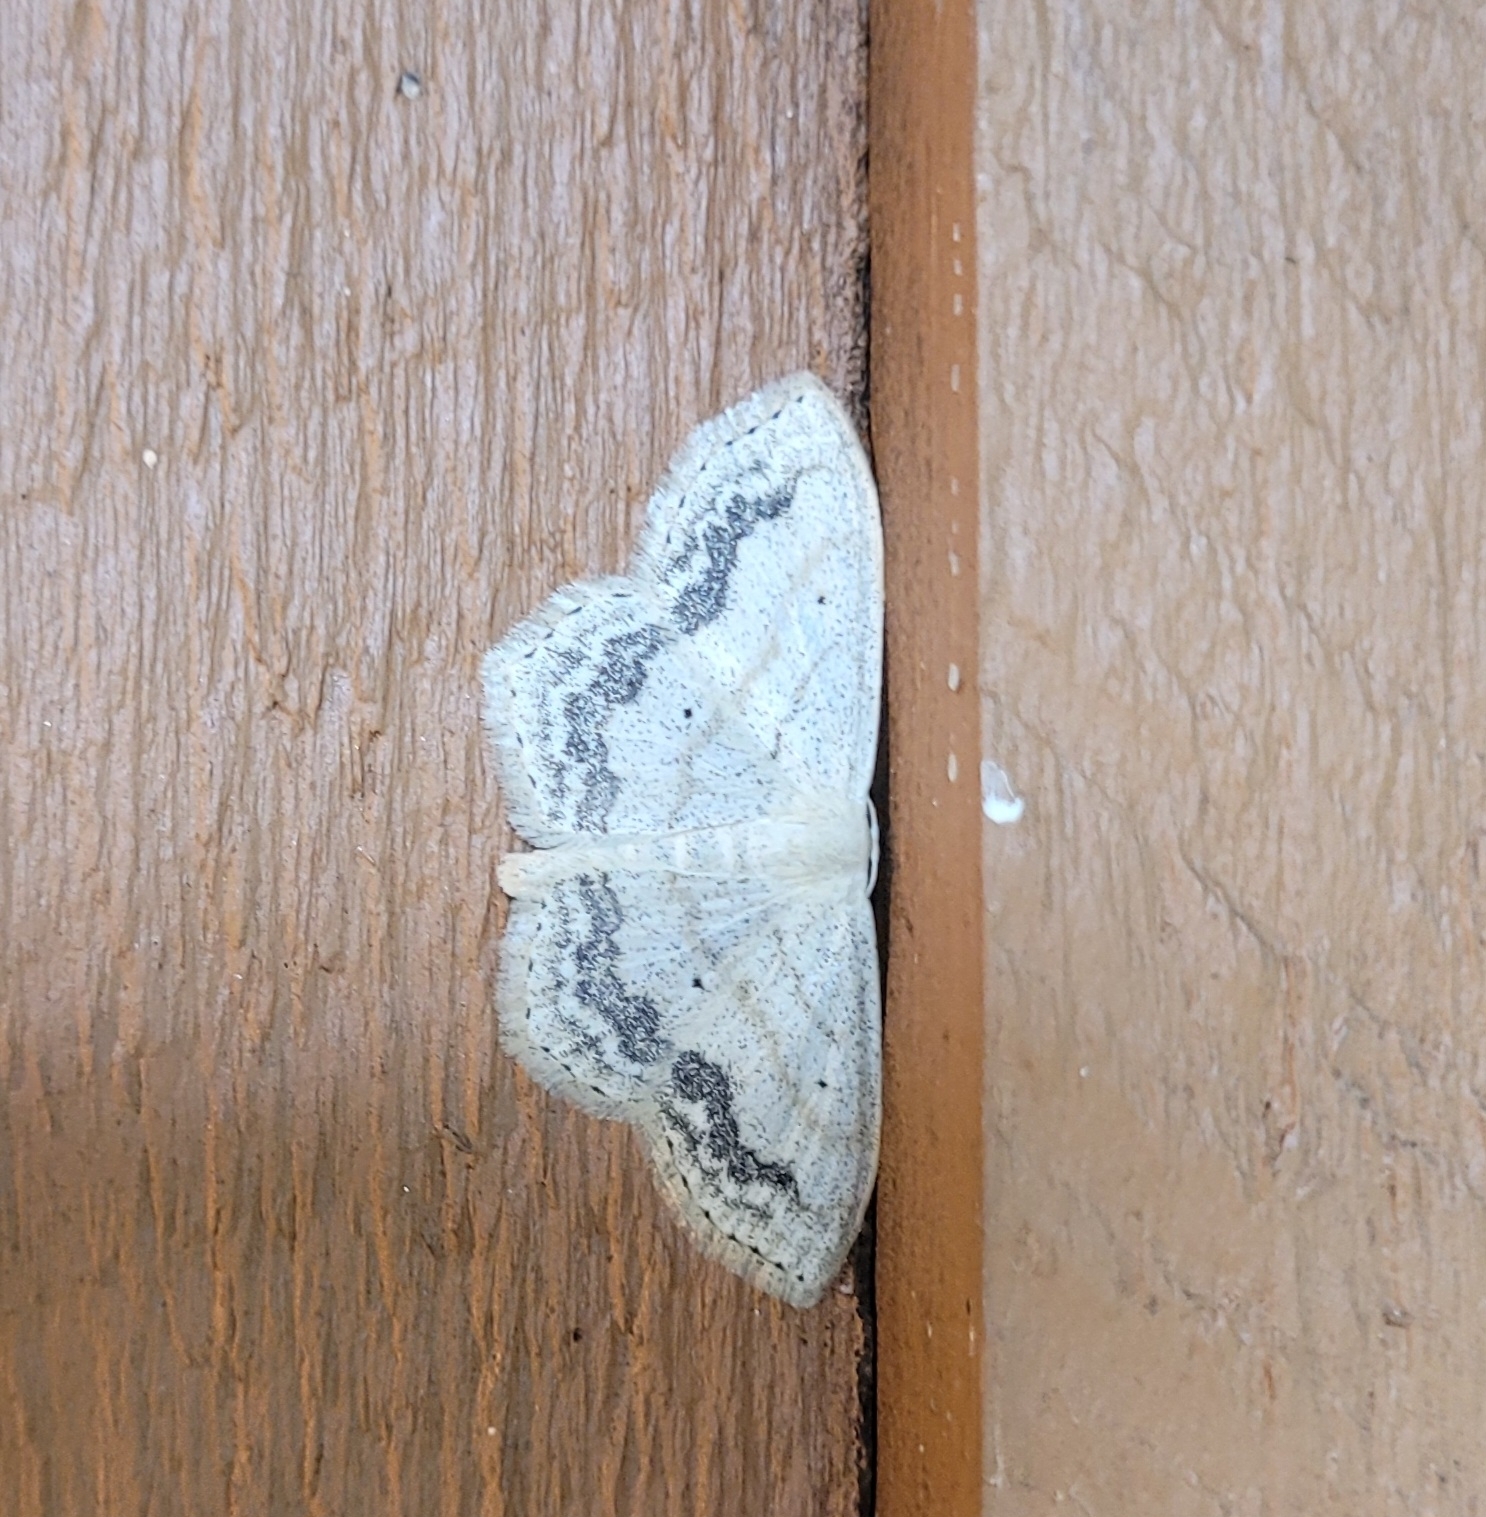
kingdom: Animalia
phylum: Arthropoda
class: Insecta
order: Lepidoptera
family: Geometridae
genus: Scopula
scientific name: Scopula limboundata
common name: Large lace border
